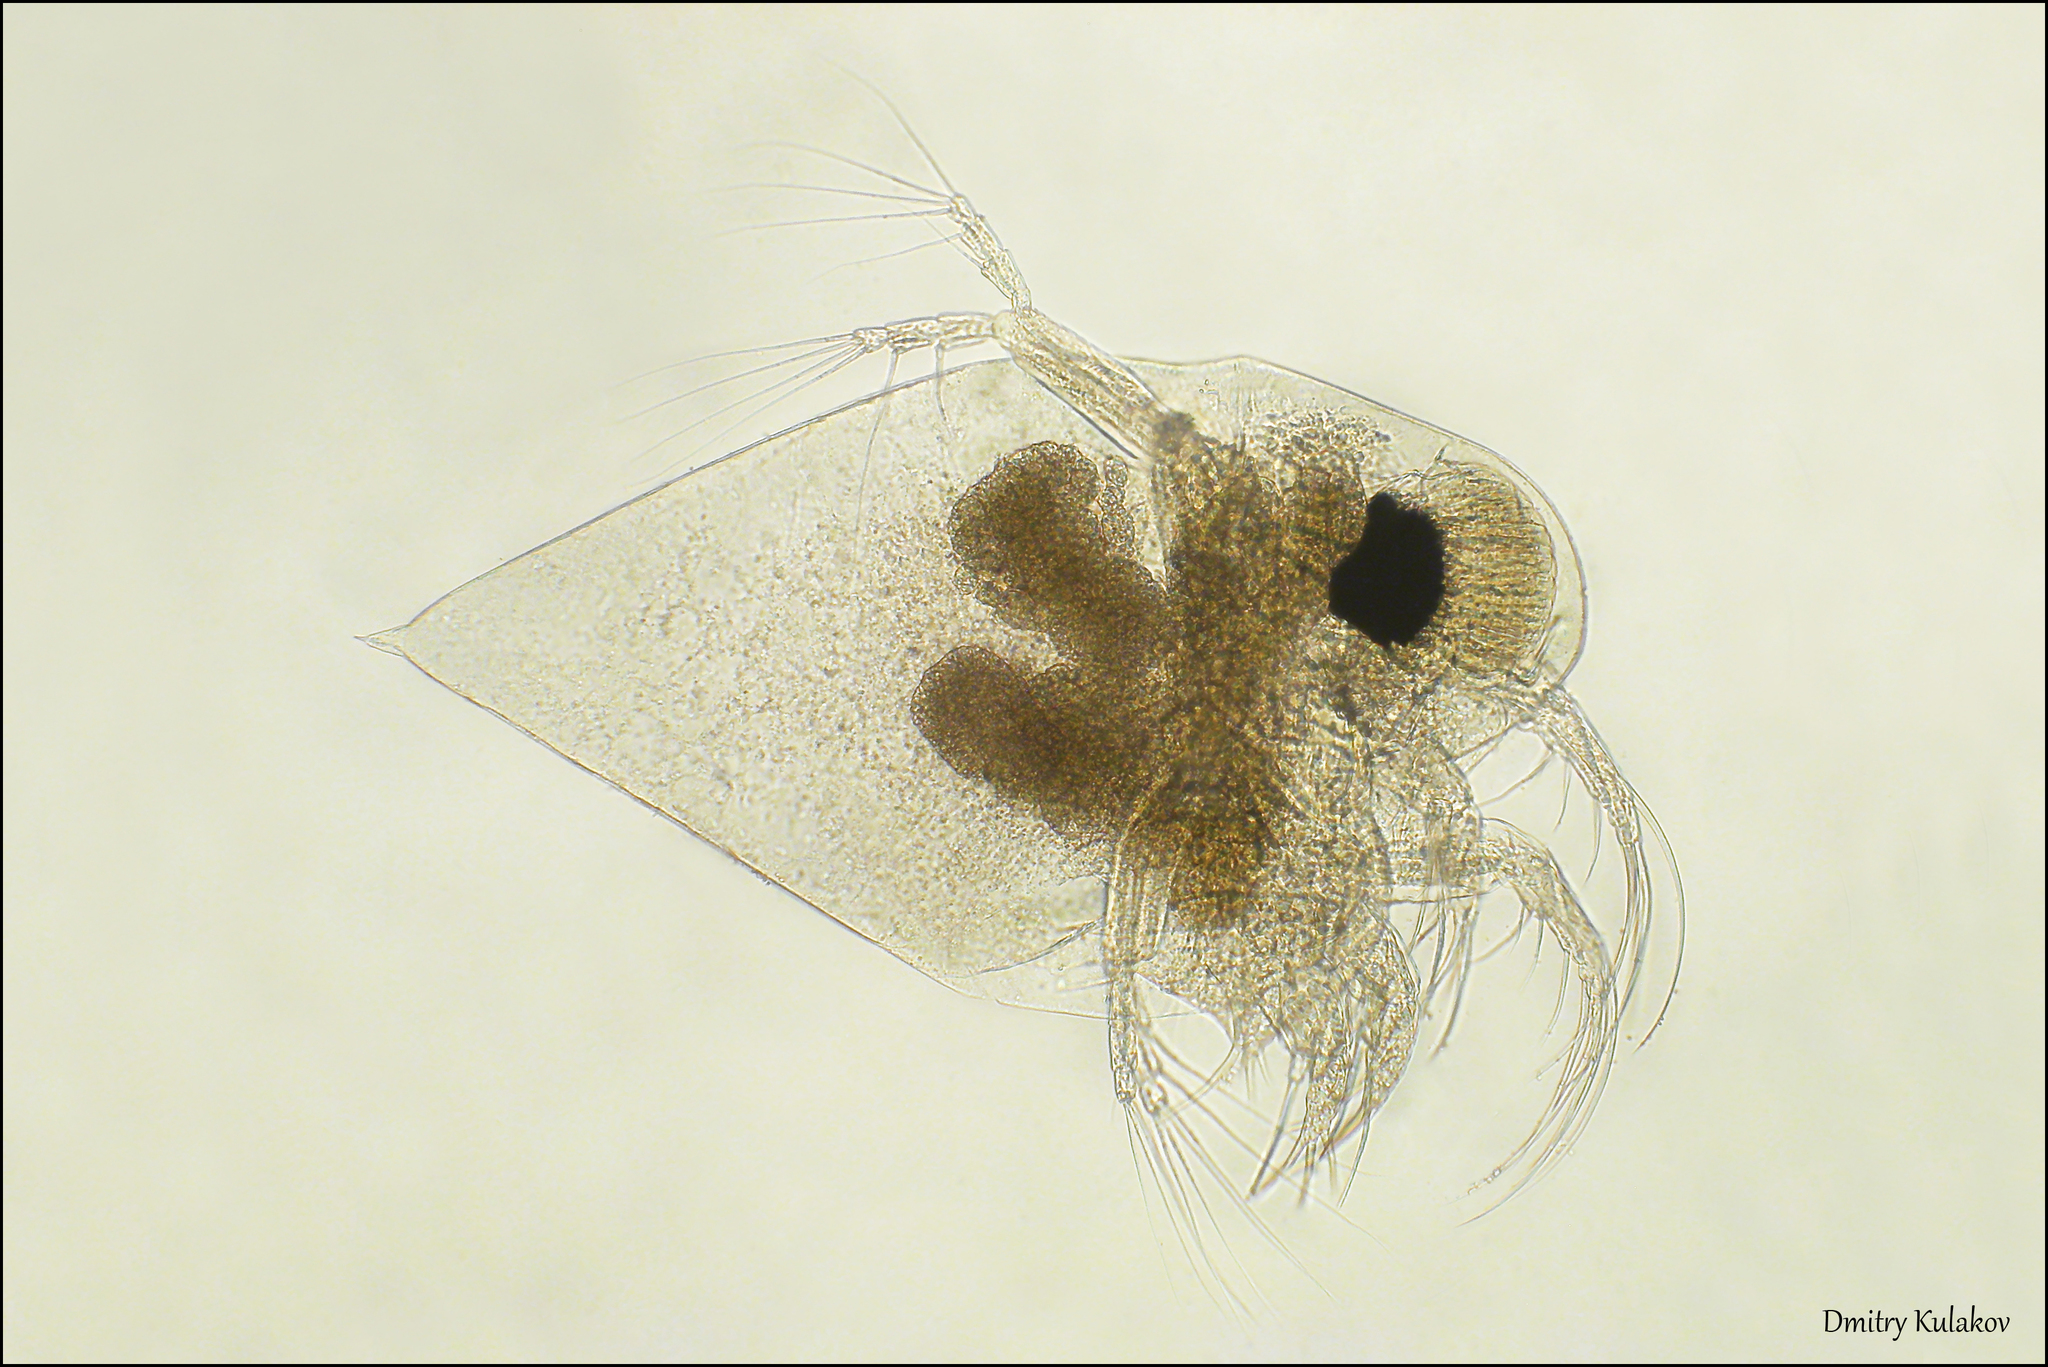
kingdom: Animalia
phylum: Arthropoda
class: Branchiopoda
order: Diplostraca
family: Podonidae
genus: Evadne
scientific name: Evadne nordmanni
